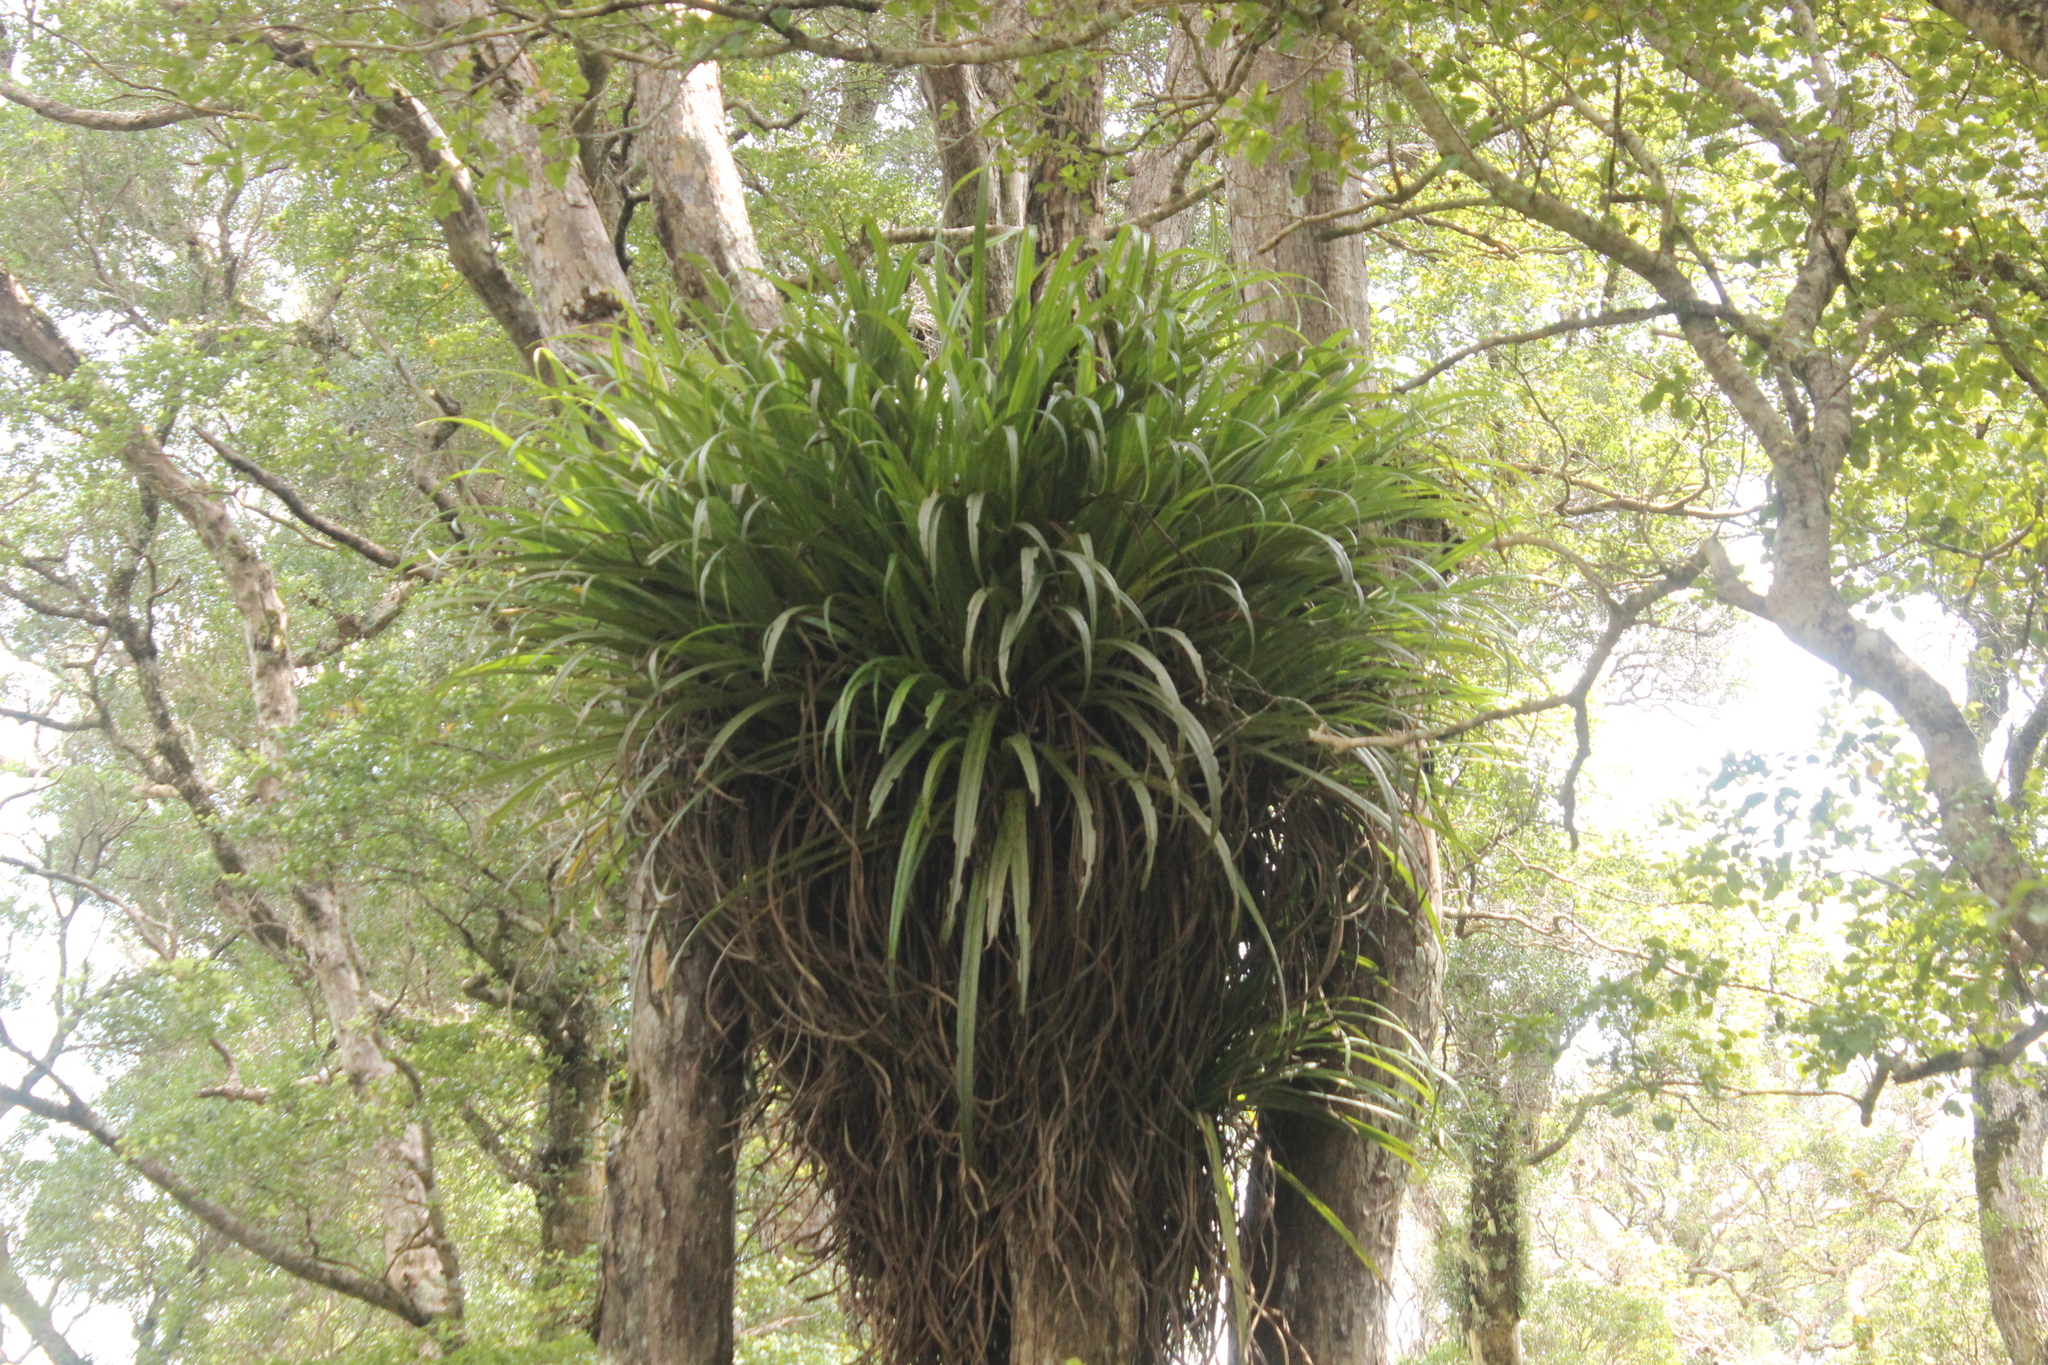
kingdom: Plantae
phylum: Tracheophyta
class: Liliopsida
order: Asparagales
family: Asteliaceae
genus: Astelia
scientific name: Astelia hastata
